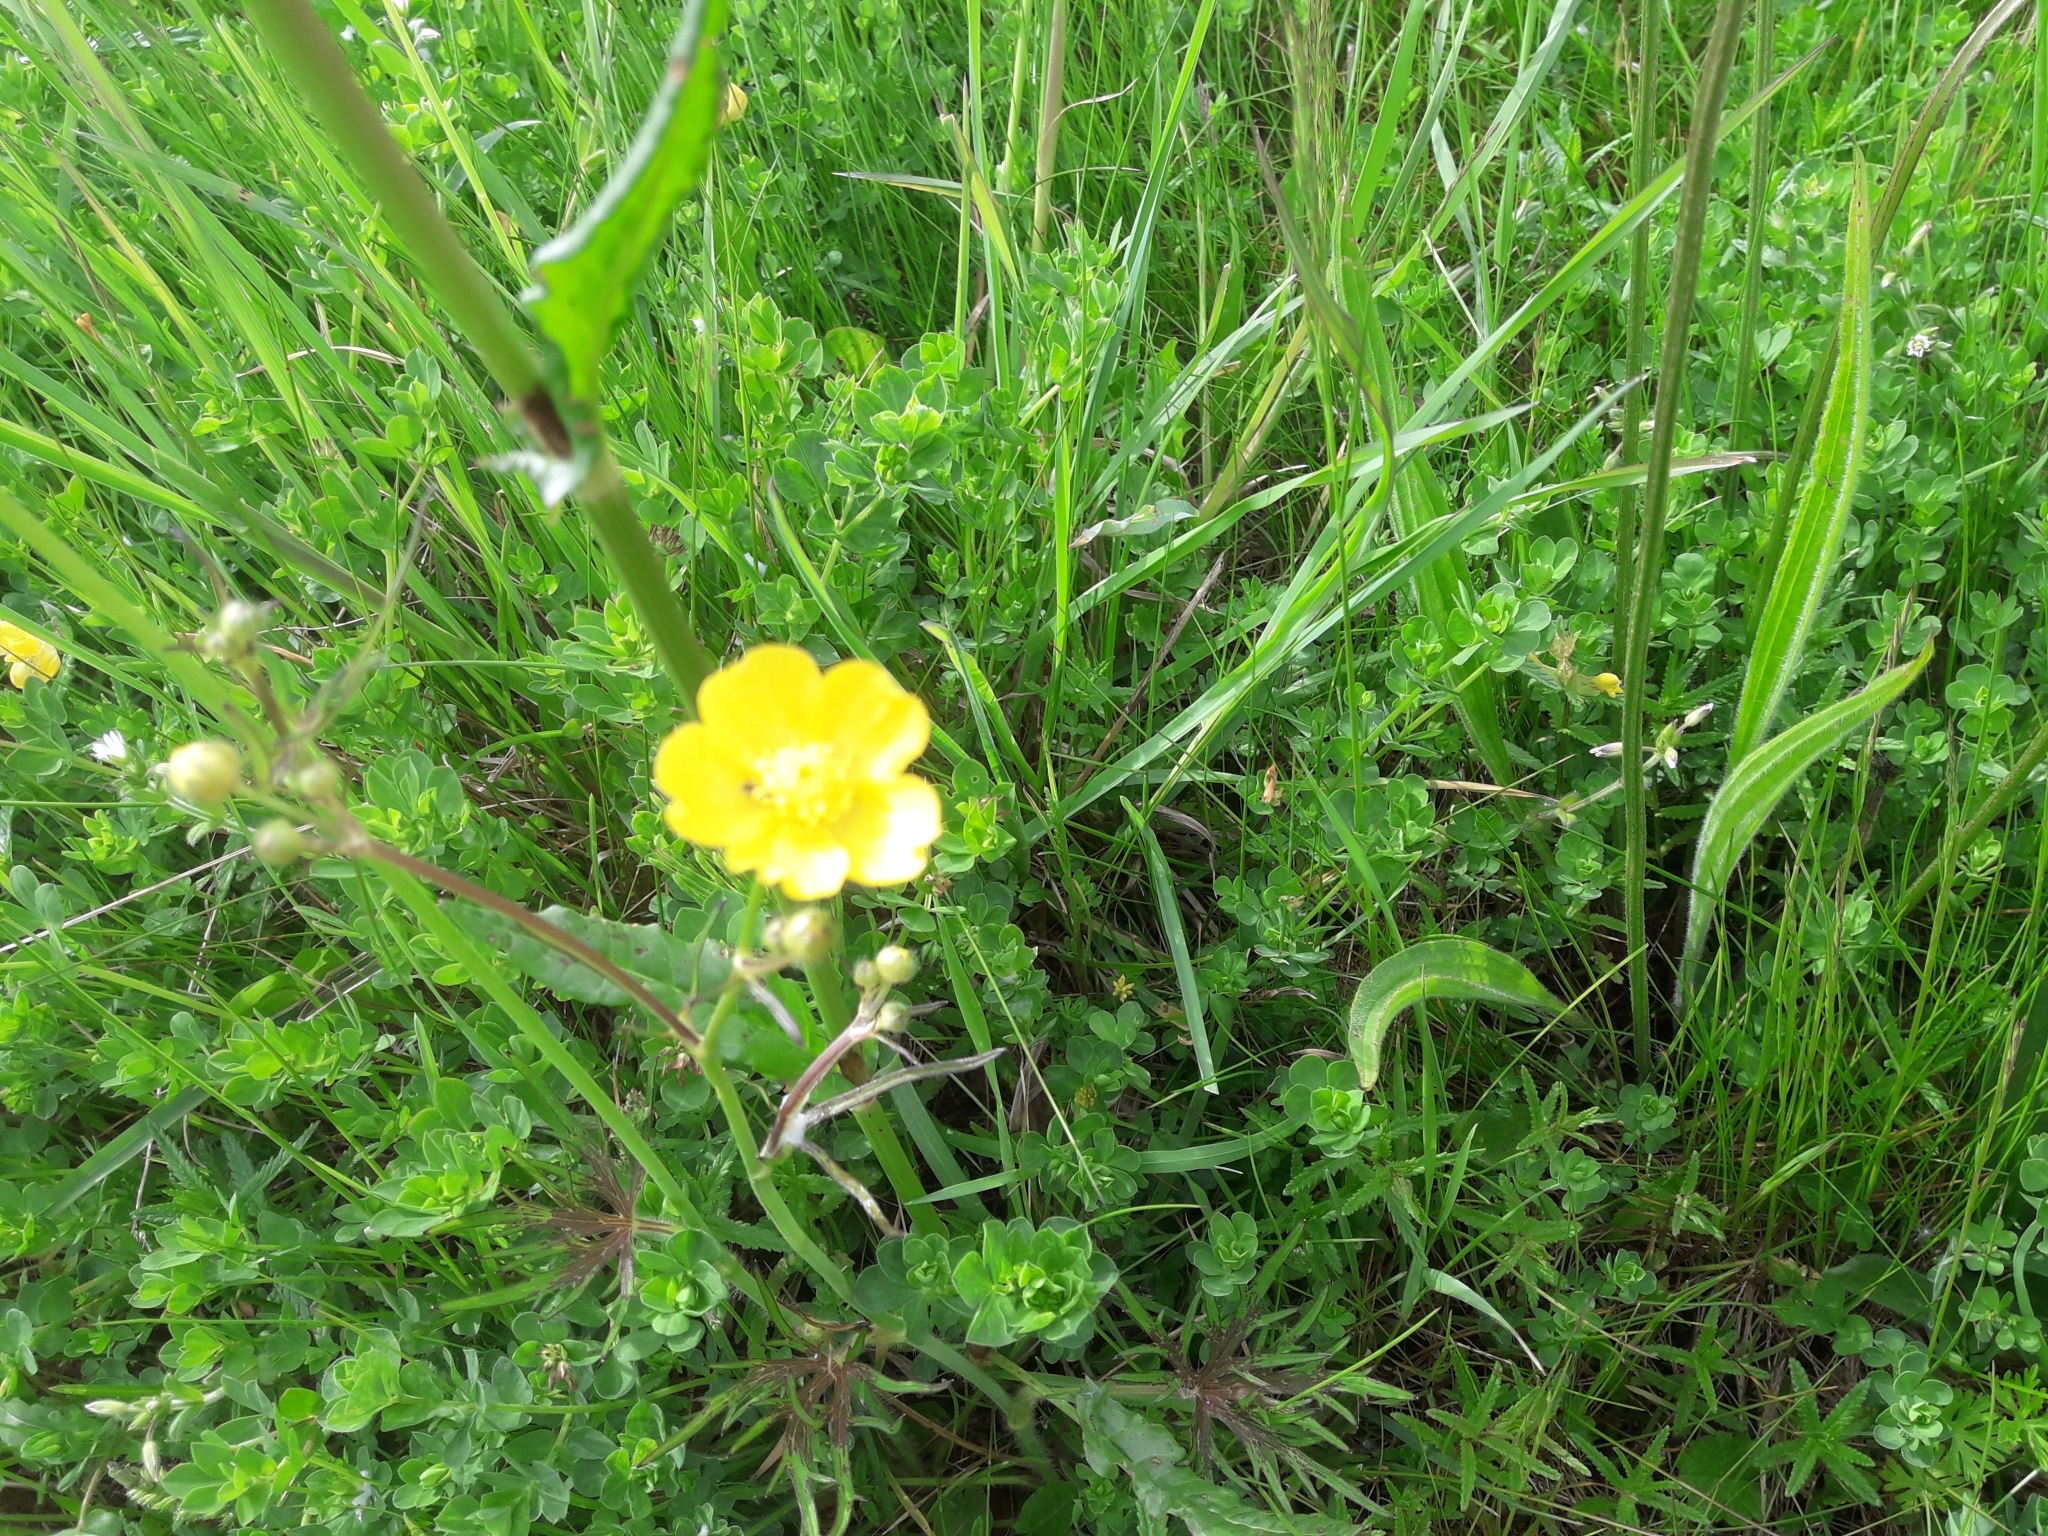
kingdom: Plantae
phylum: Tracheophyta
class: Magnoliopsida
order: Ranunculales
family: Ranunculaceae
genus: Ranunculus
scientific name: Ranunculus acris
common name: Meadow buttercup
